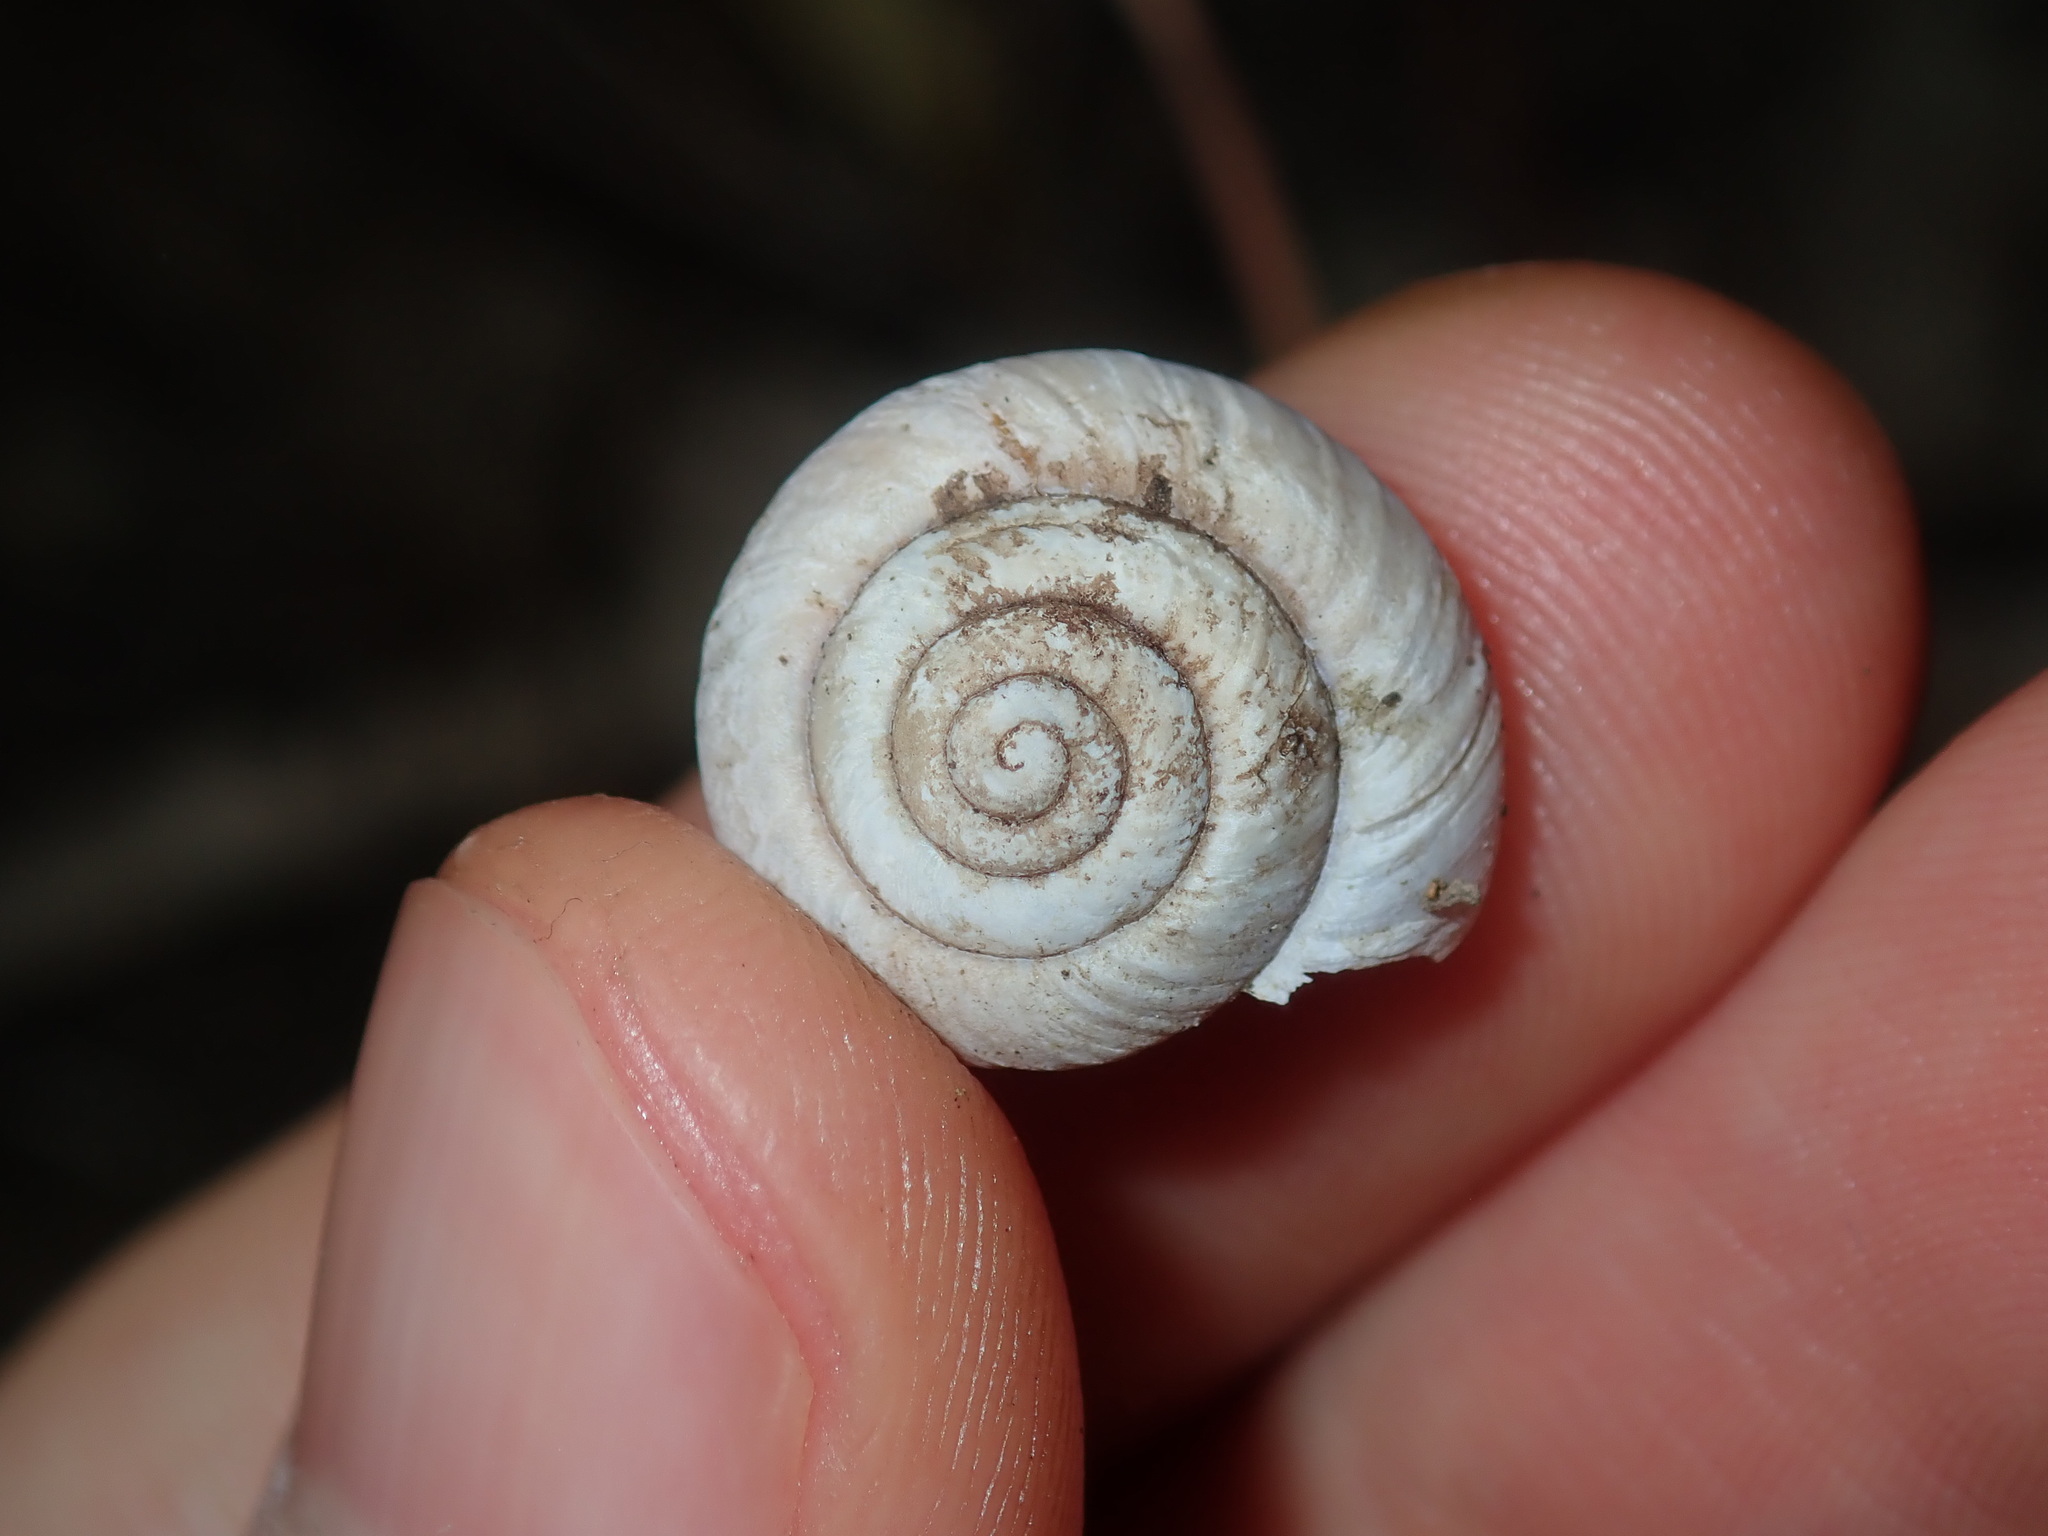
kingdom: Animalia
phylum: Mollusca
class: Gastropoda
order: Stylommatophora
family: Camaenidae
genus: Sauroconcha
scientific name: Sauroconcha sheai
